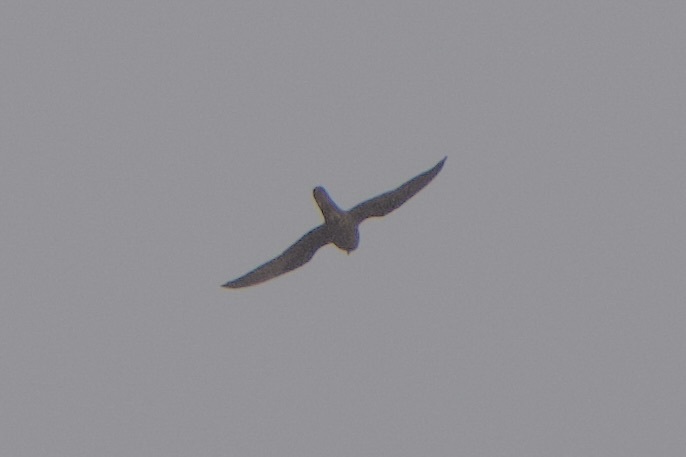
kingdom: Animalia
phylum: Chordata
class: Aves
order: Falconiformes
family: Falconidae
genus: Falco
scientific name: Falco eleonorae
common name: Eleonora's falcon
